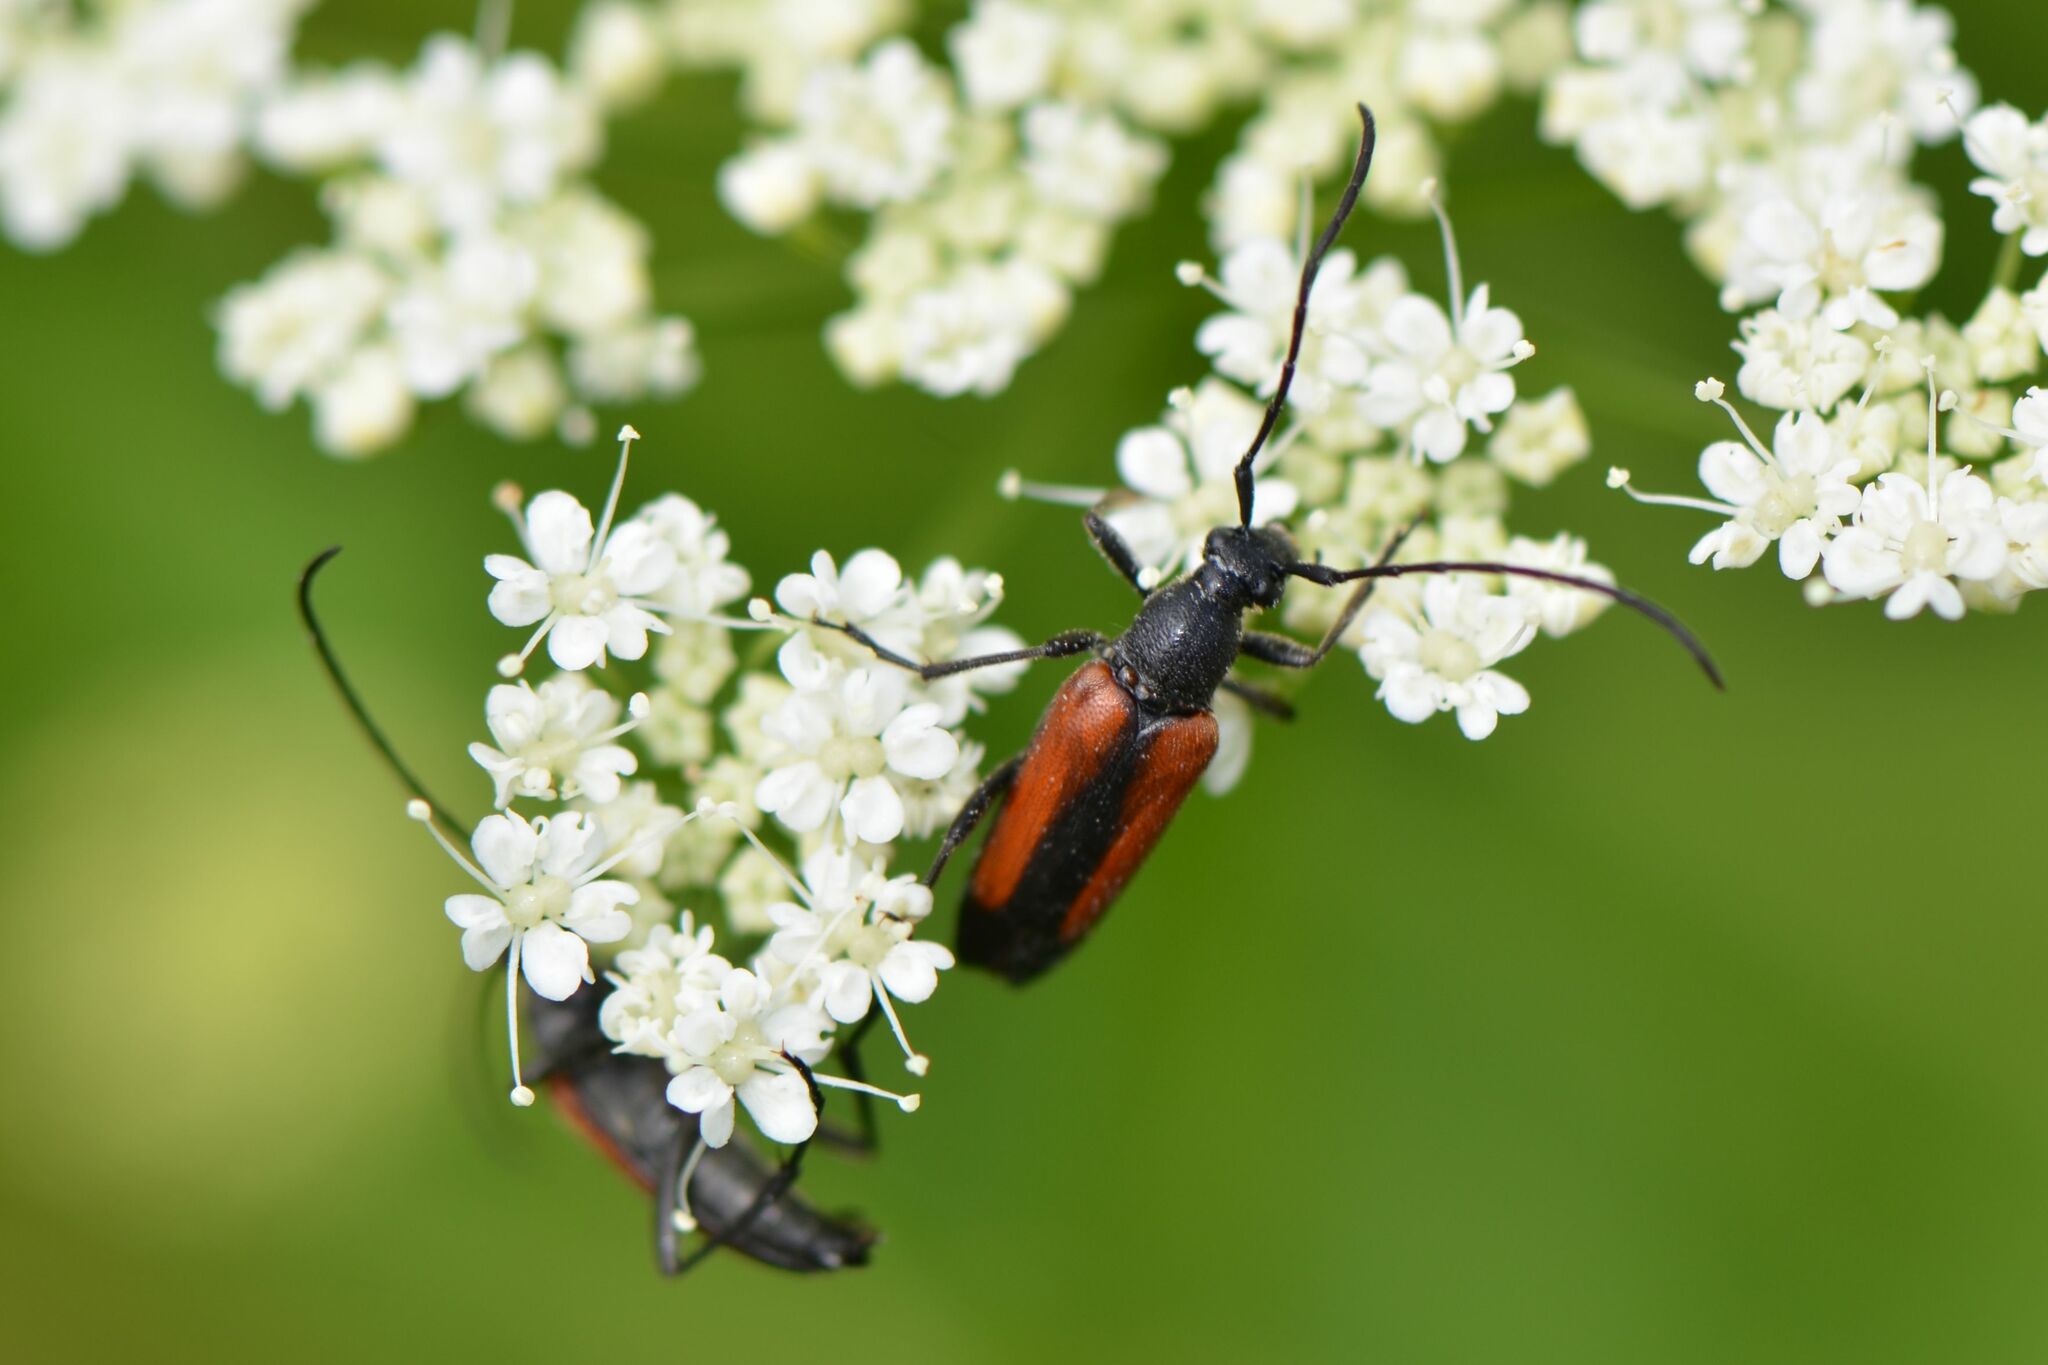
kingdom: Animalia
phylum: Arthropoda
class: Insecta
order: Coleoptera
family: Cerambycidae
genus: Stenurella
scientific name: Stenurella melanura
